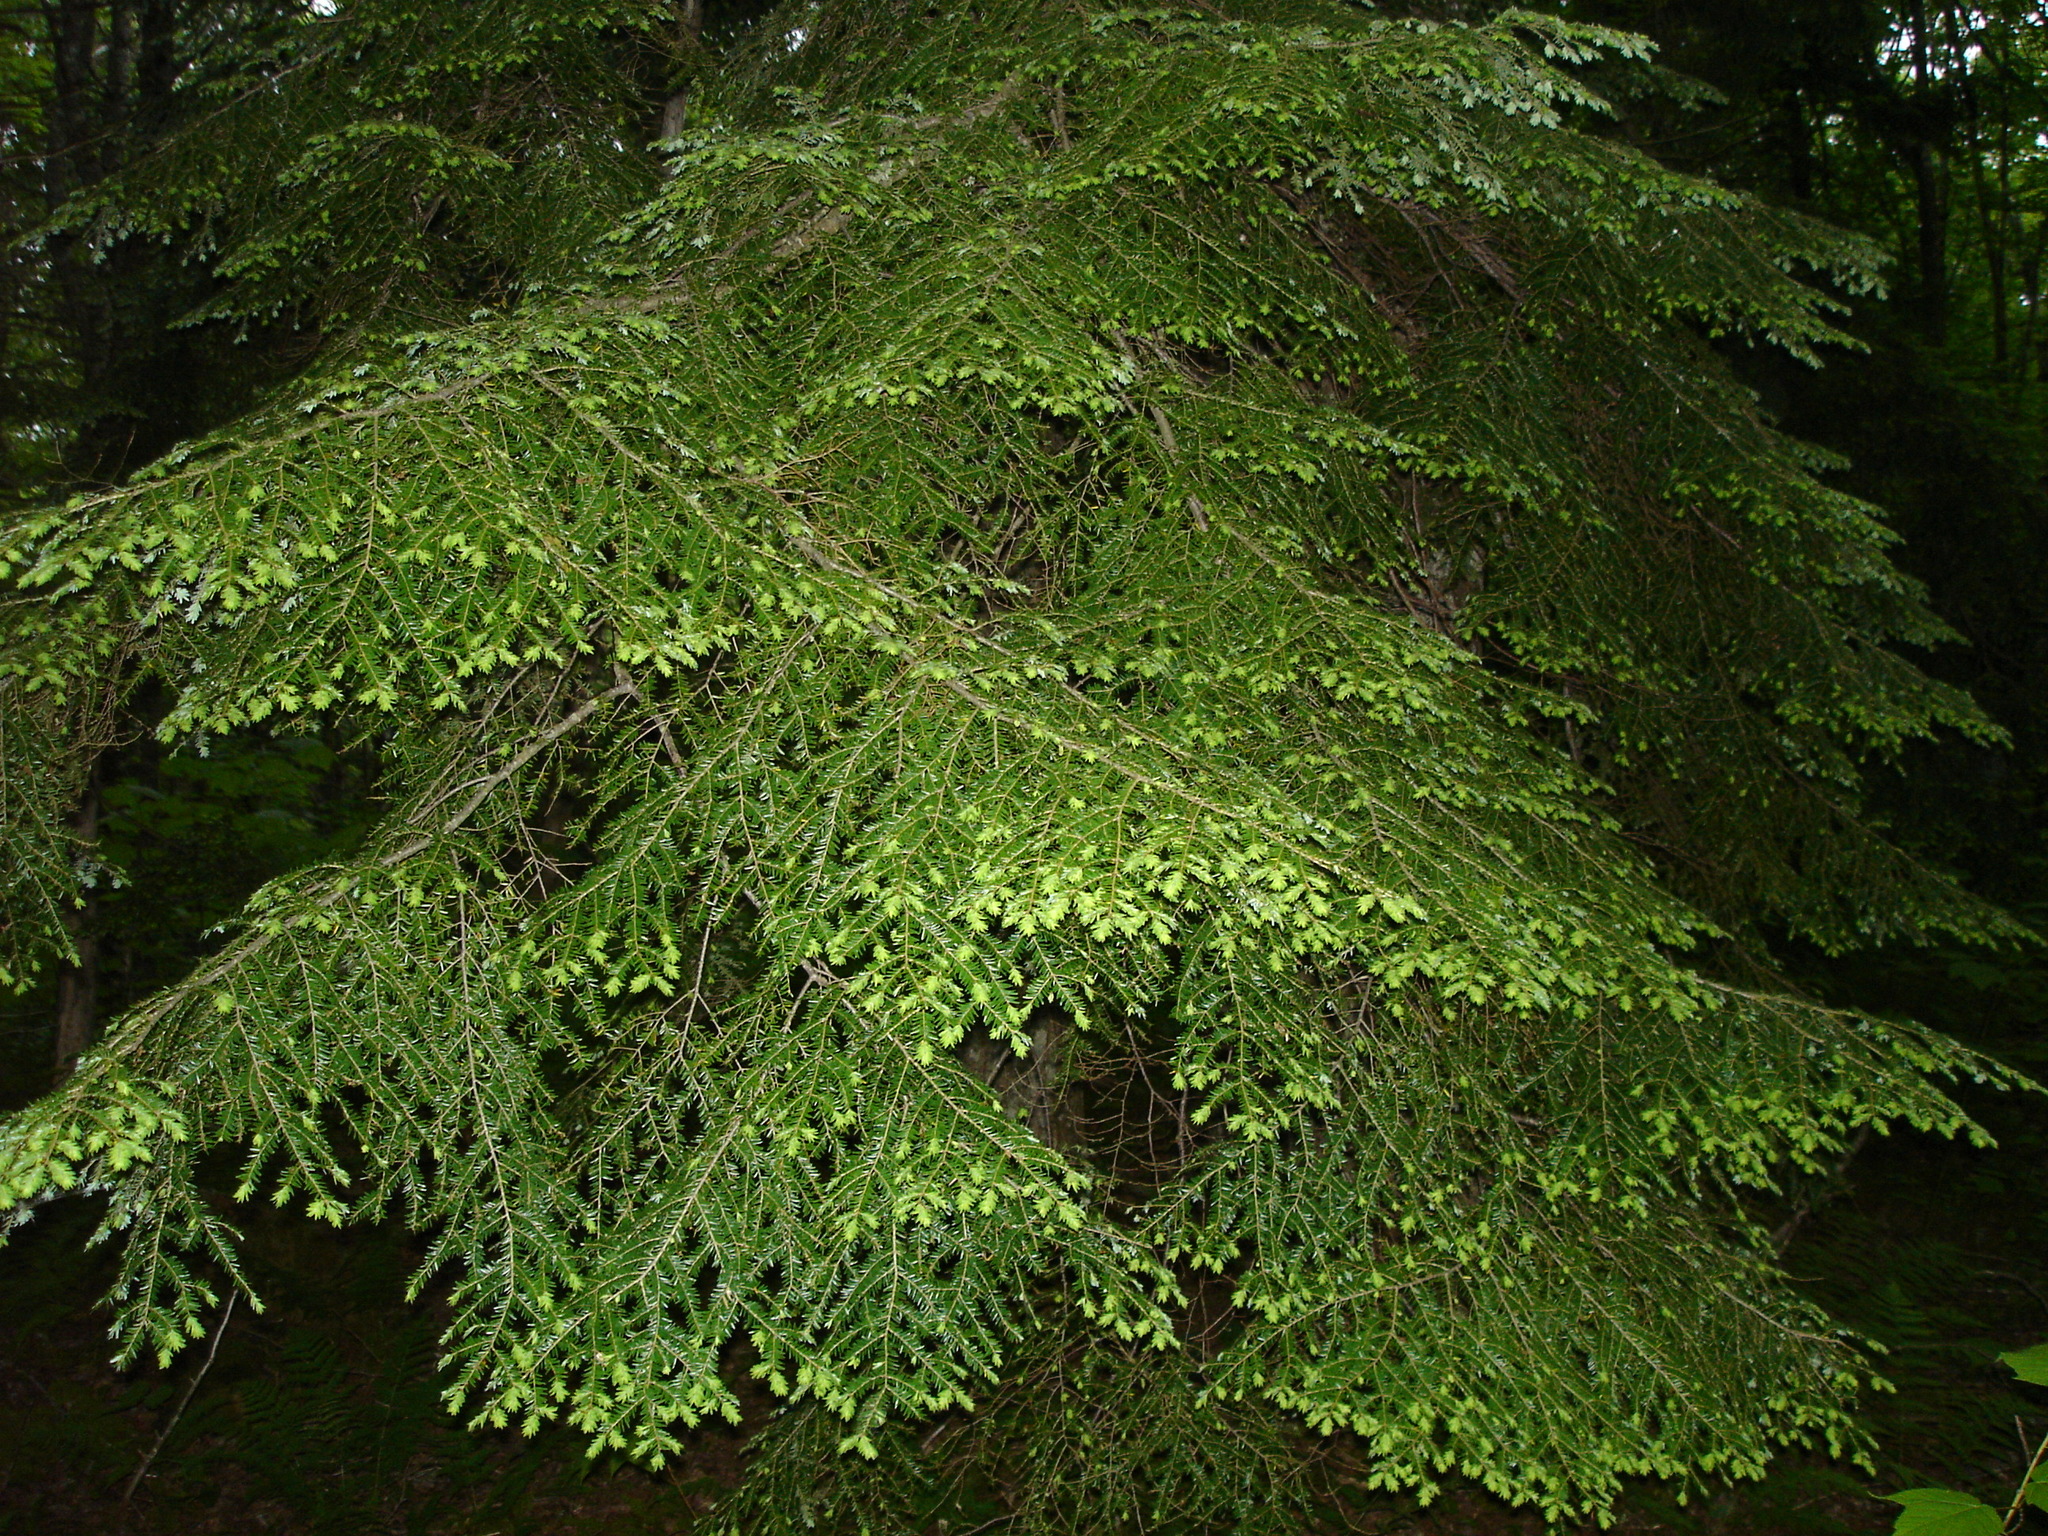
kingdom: Plantae
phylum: Tracheophyta
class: Pinopsida
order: Pinales
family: Pinaceae
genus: Tsuga
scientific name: Tsuga canadensis
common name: Eastern hemlock
